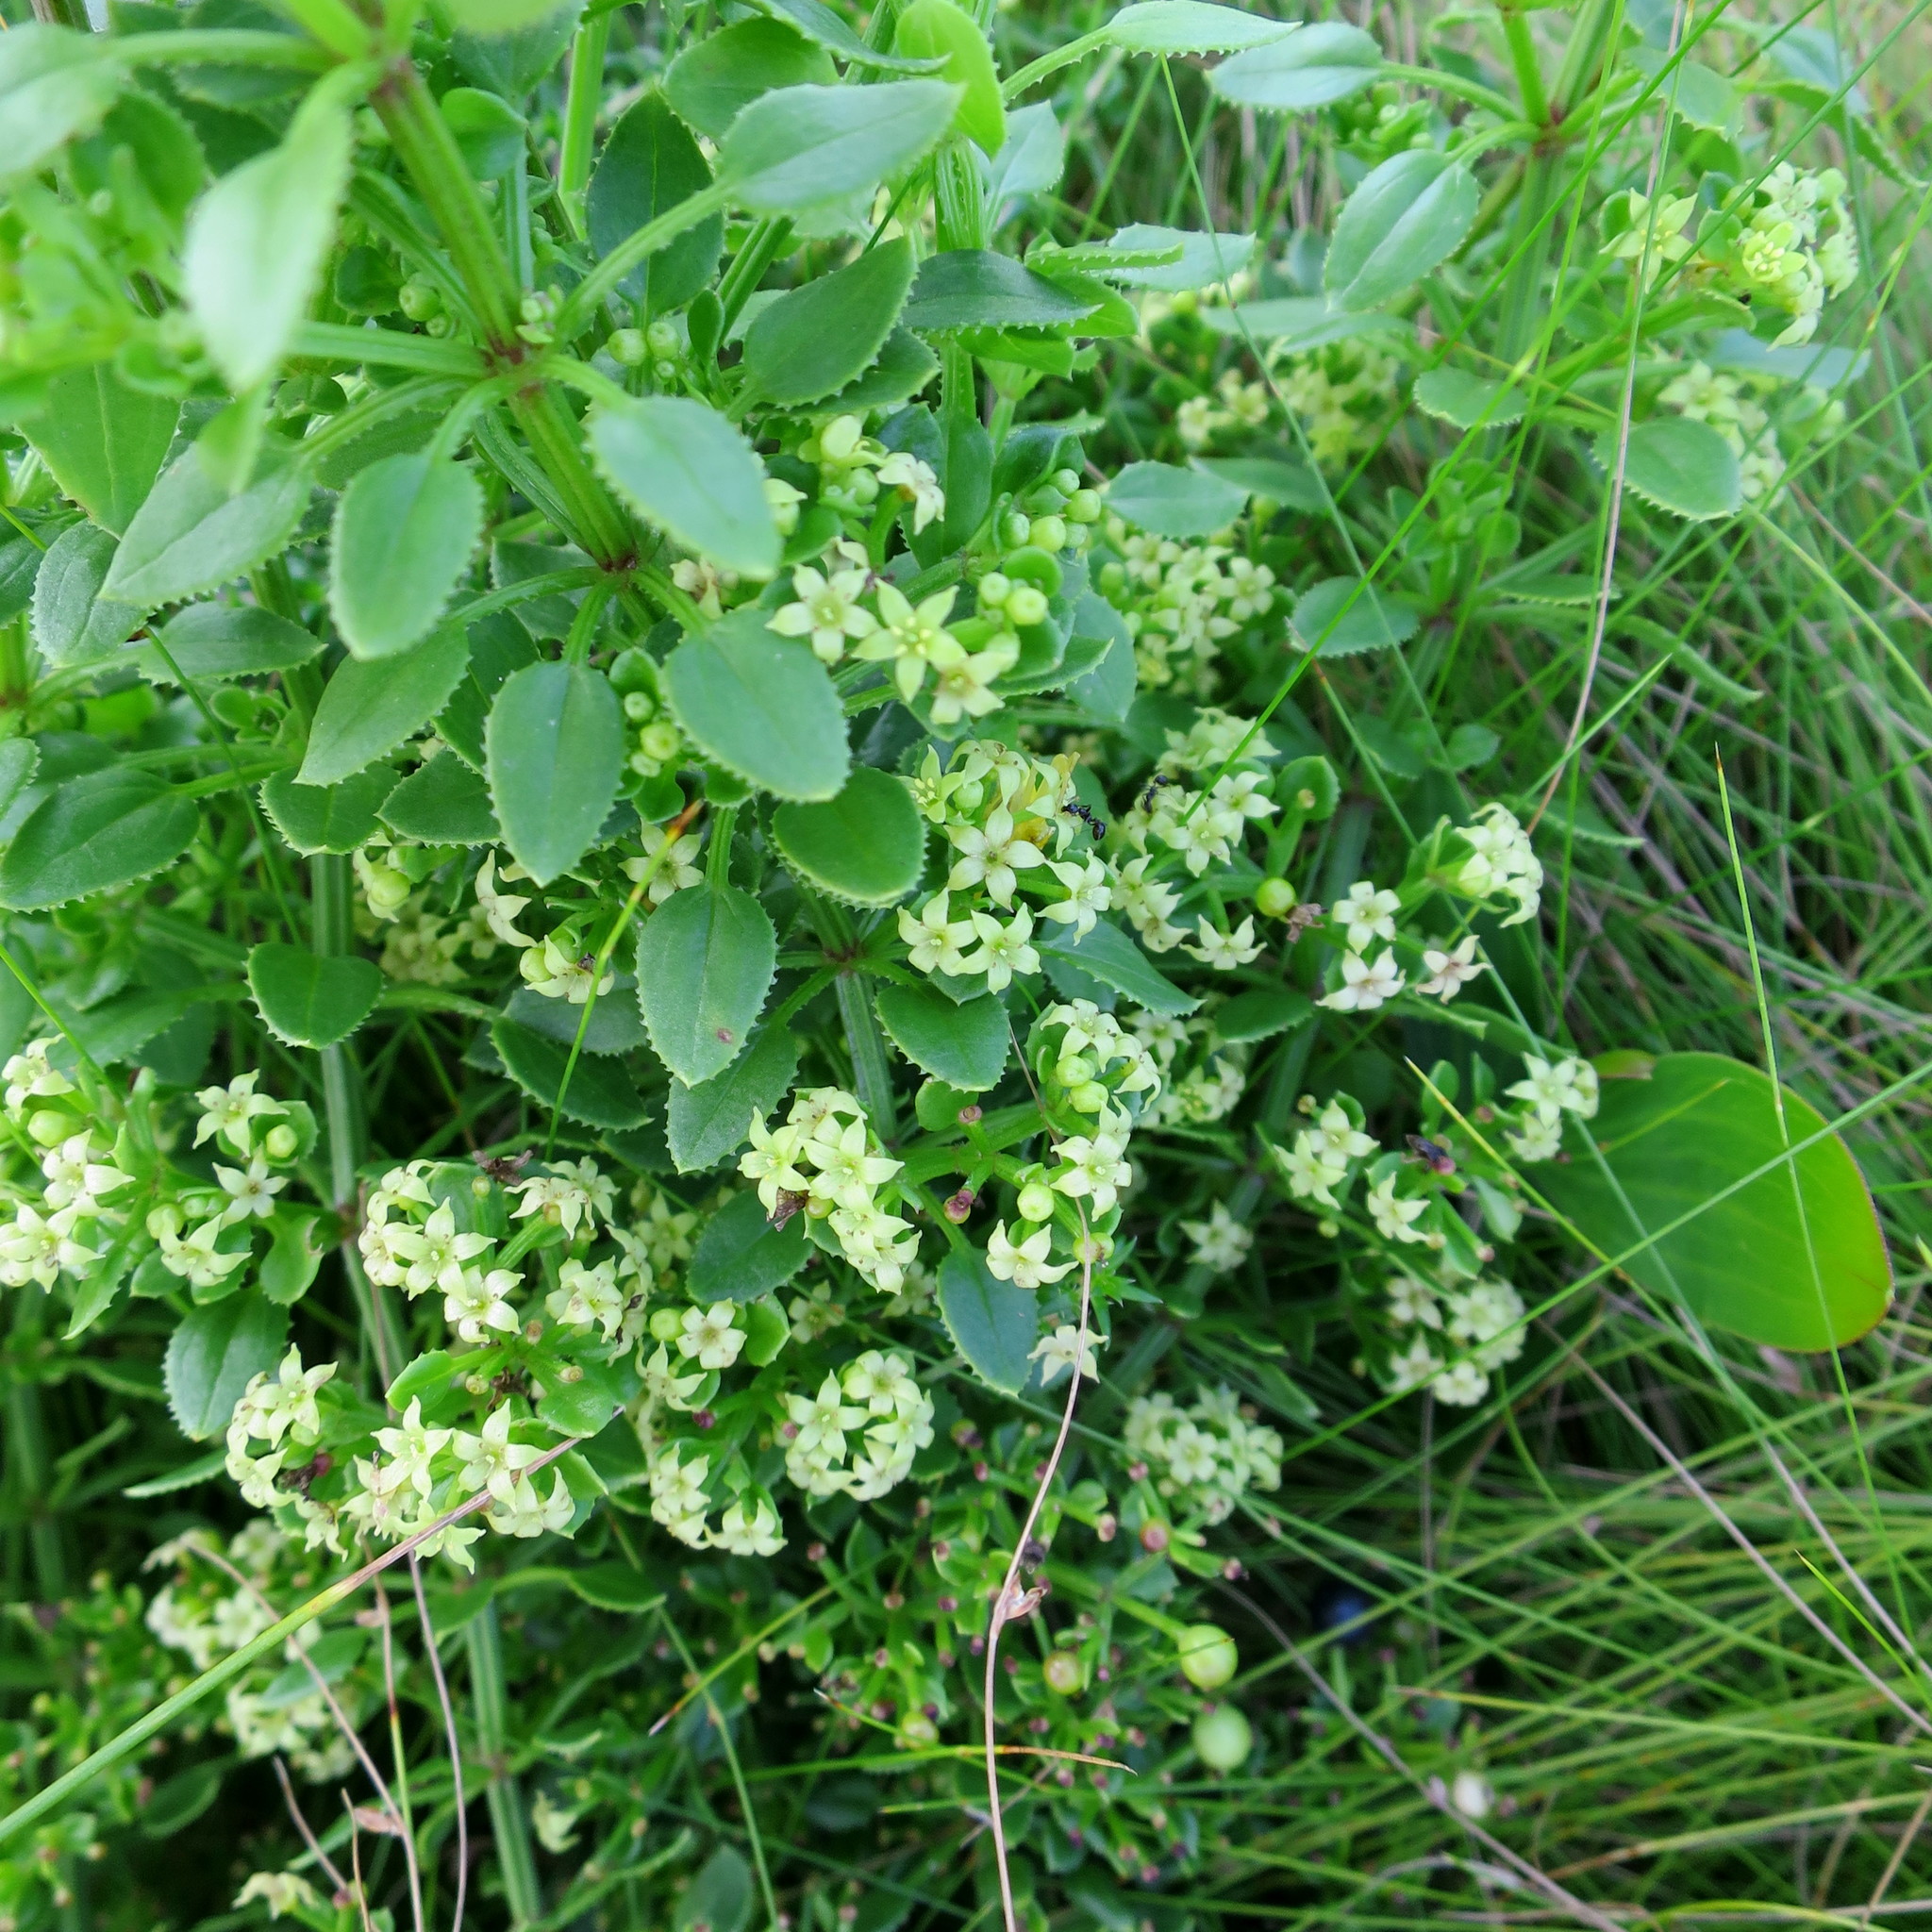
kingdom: Plantae
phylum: Tracheophyta
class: Magnoliopsida
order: Gentianales
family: Rubiaceae
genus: Rubia
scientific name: Rubia petiolaris
